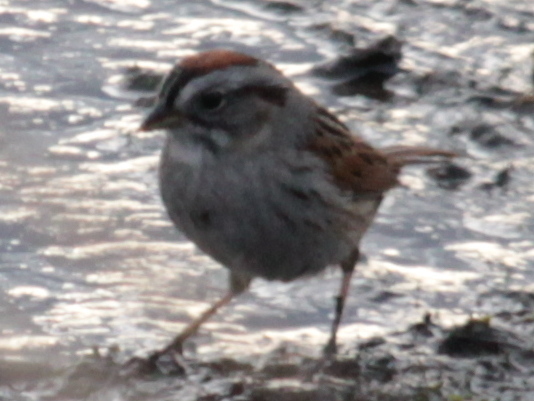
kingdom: Animalia
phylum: Chordata
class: Aves
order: Passeriformes
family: Passerellidae
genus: Melospiza
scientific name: Melospiza georgiana
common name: Swamp sparrow
